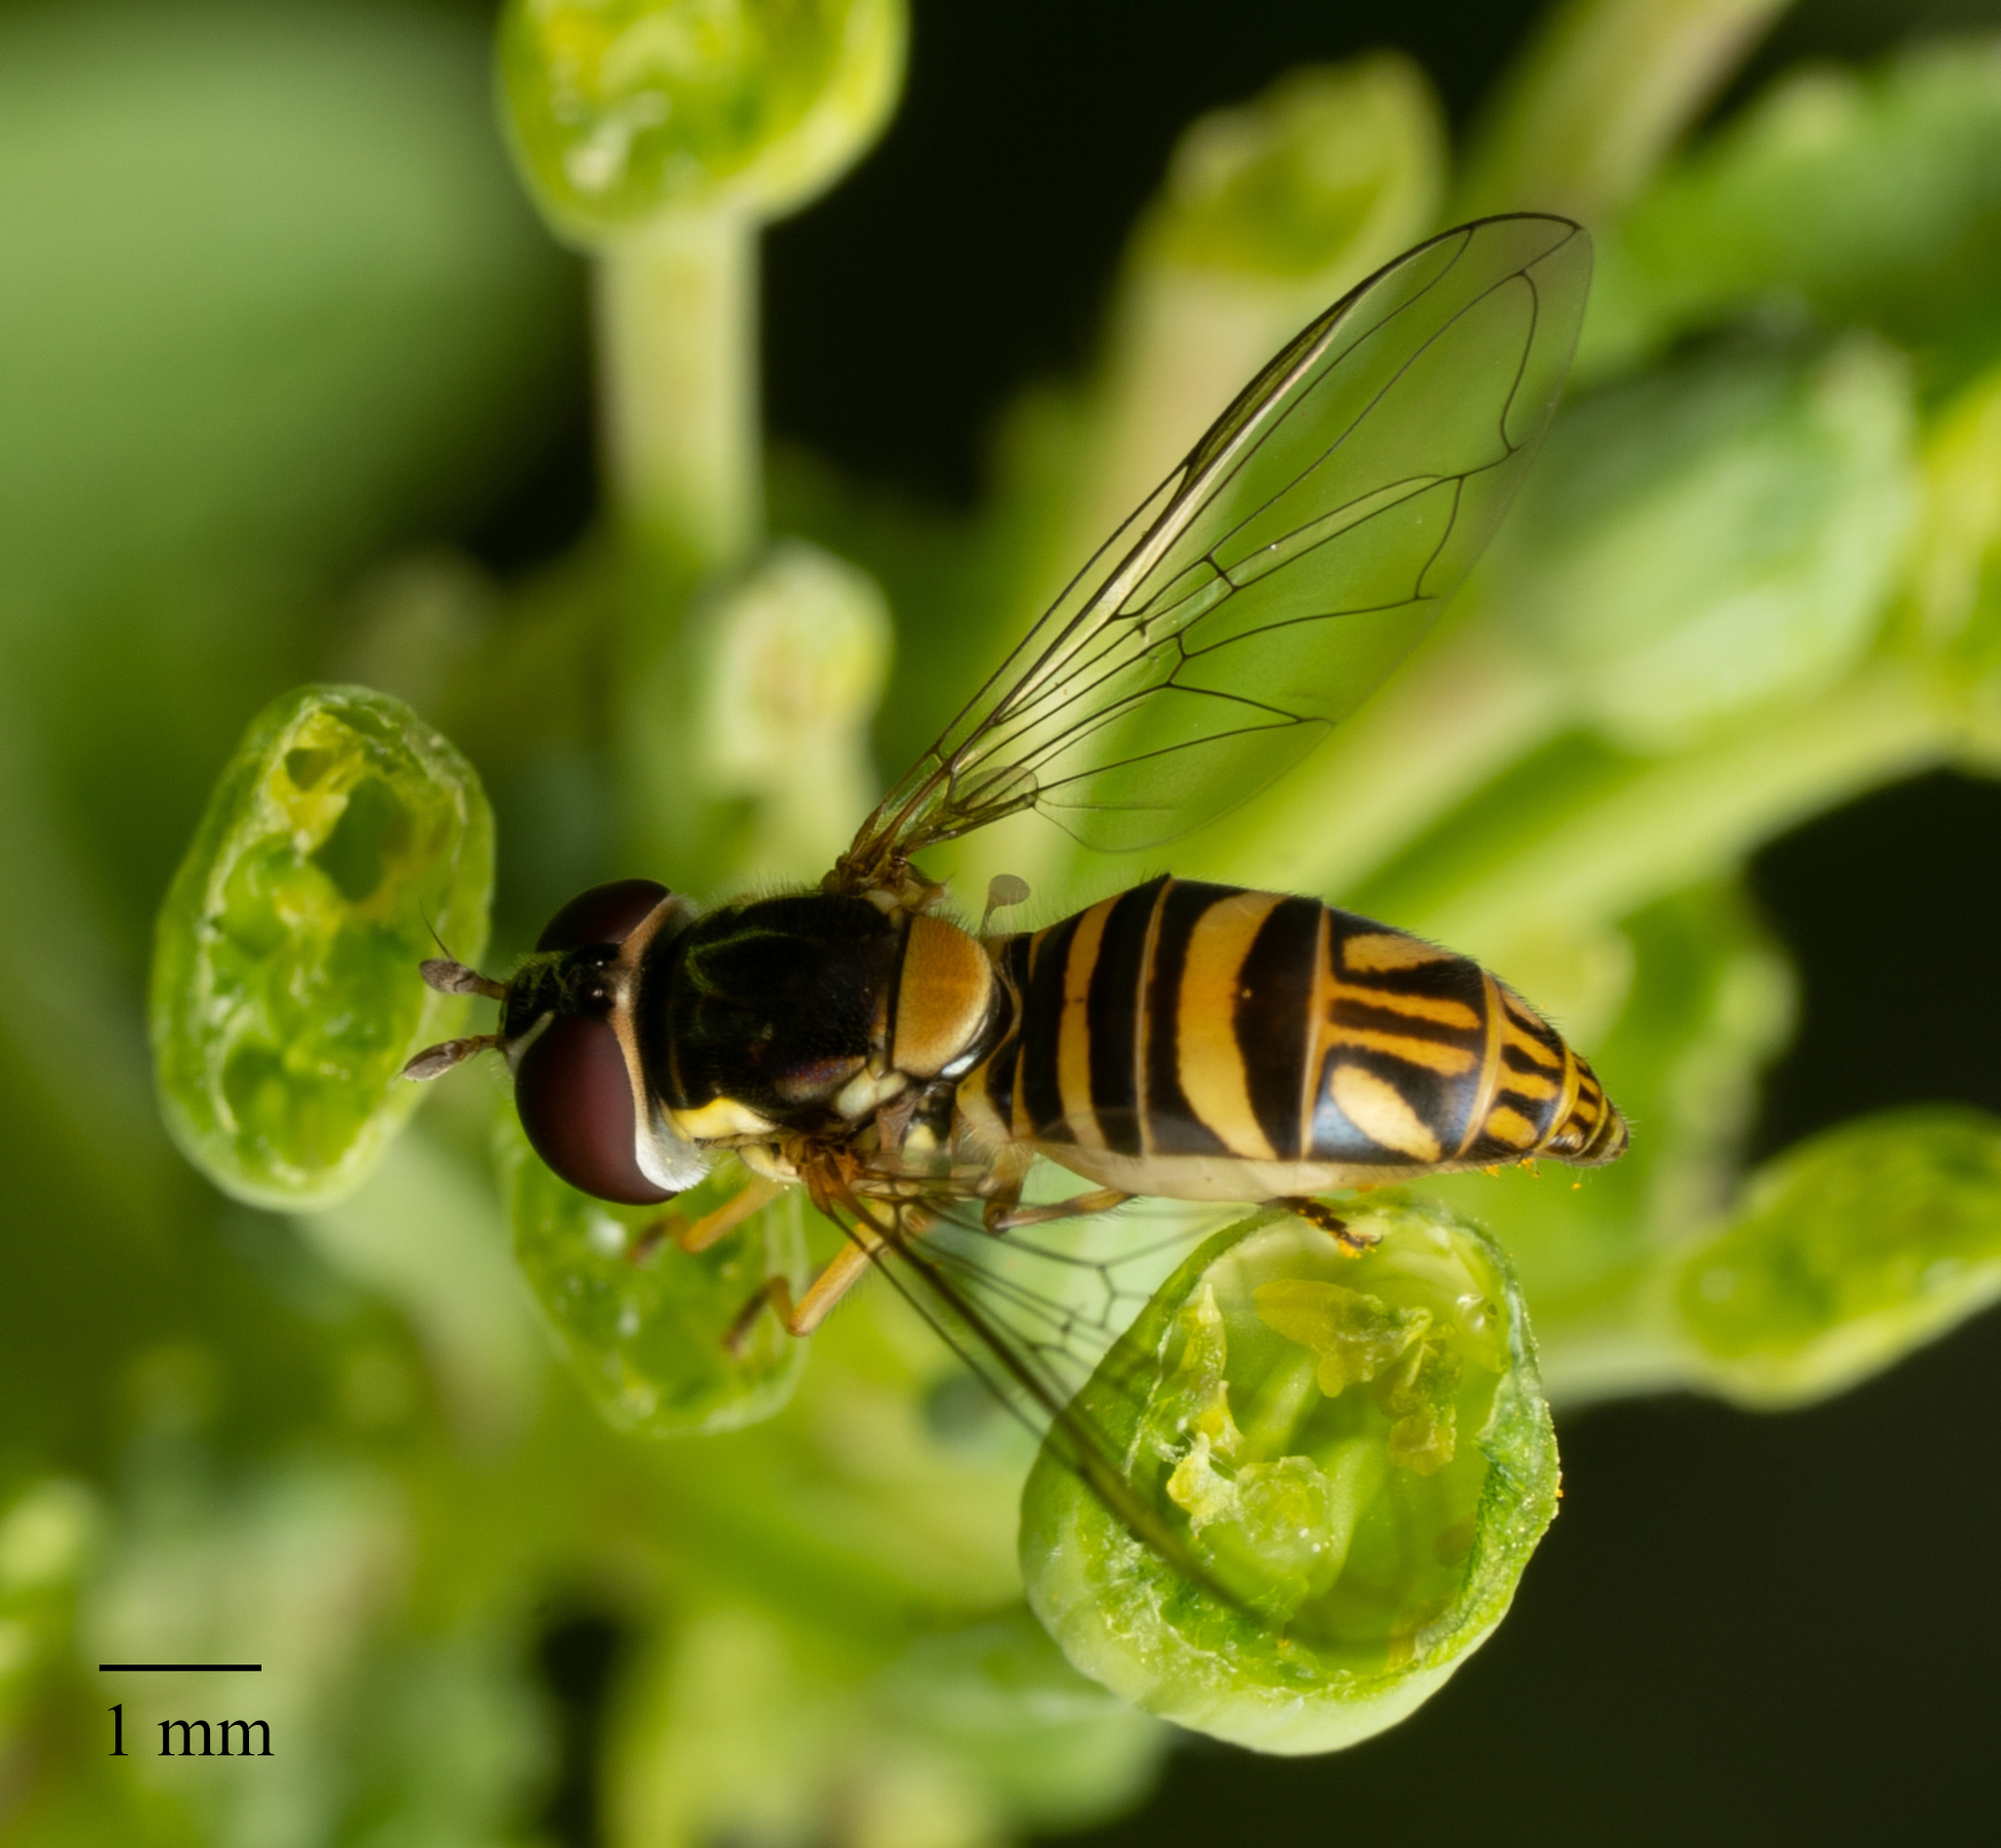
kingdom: Animalia
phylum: Arthropoda
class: Insecta
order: Diptera
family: Syrphidae
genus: Allograpta
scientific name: Allograpta obliqua
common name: Common oblique syrphid
